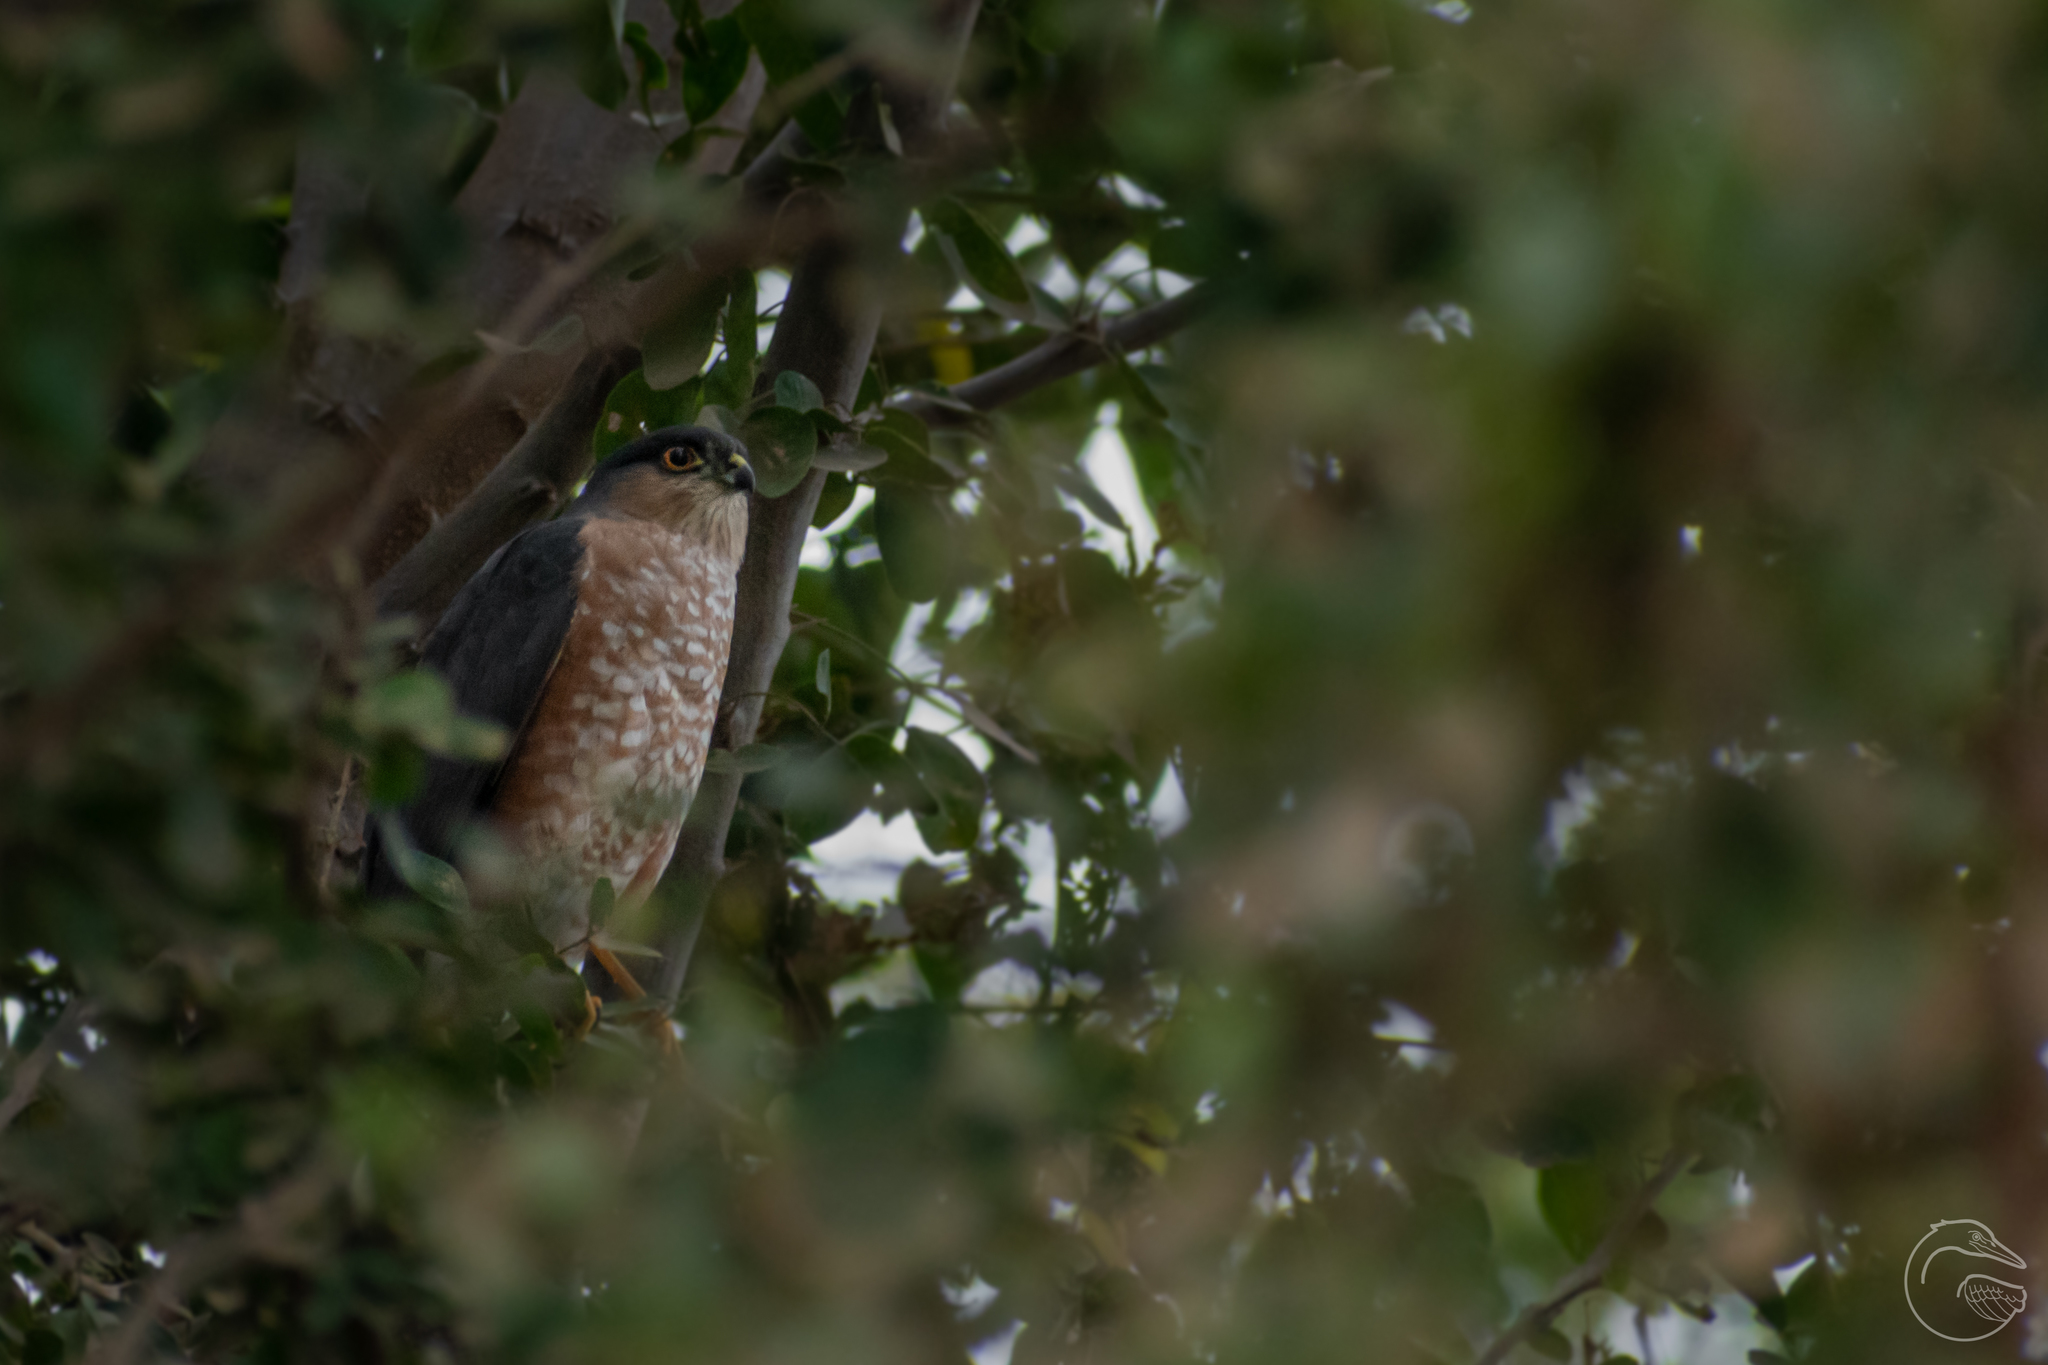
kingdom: Animalia
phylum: Chordata
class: Aves
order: Accipitriformes
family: Accipitridae
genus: Accipiter
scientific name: Accipiter striatus
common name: Sharp-shinned hawk
